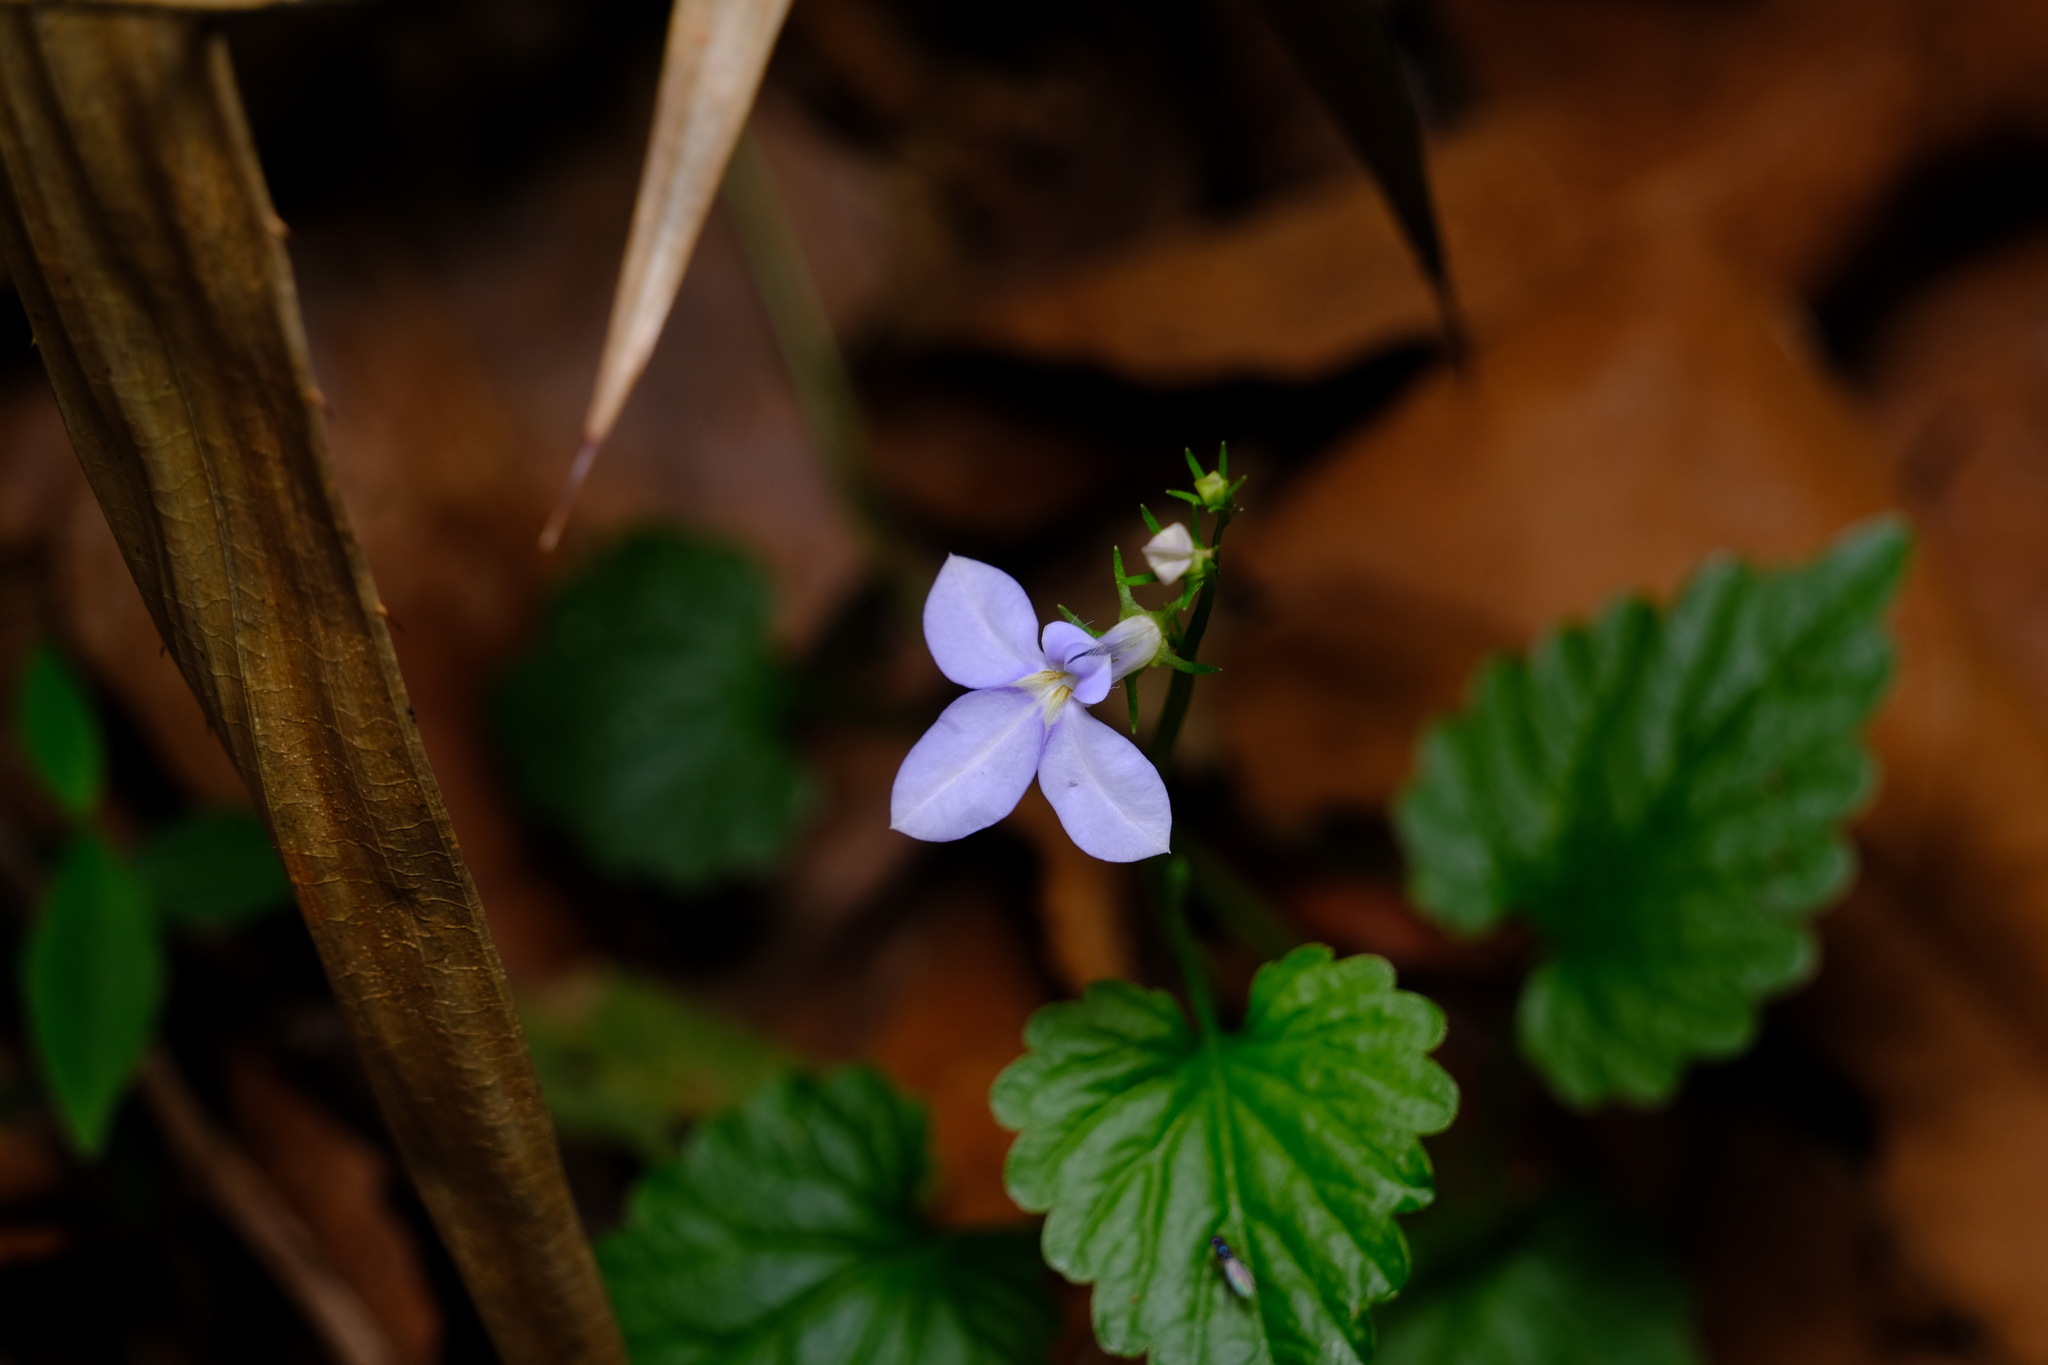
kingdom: Plantae
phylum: Tracheophyta
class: Magnoliopsida
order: Asterales
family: Campanulaceae
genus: Lobelia
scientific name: Lobelia trigonocaulis
